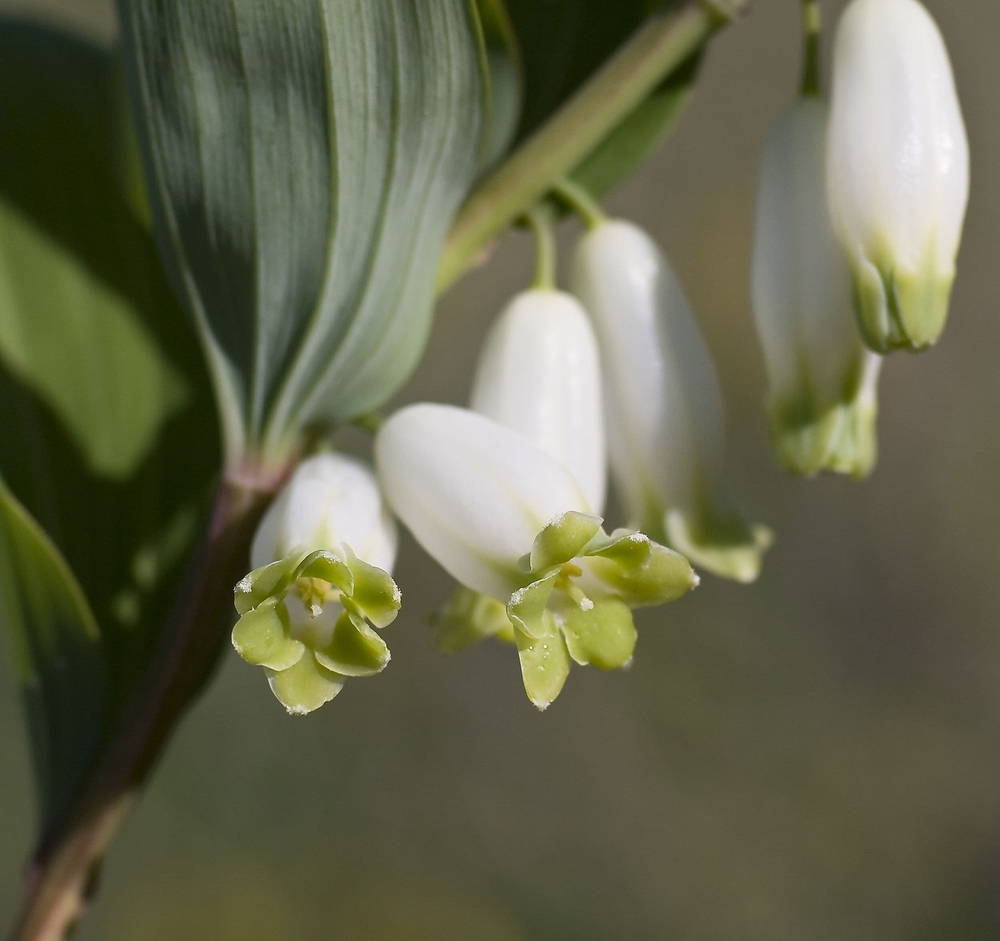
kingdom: Plantae
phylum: Tracheophyta
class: Liliopsida
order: Asparagales
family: Asparagaceae
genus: Polygonatum
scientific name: Polygonatum odoratum
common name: Angular solomon's-seal
